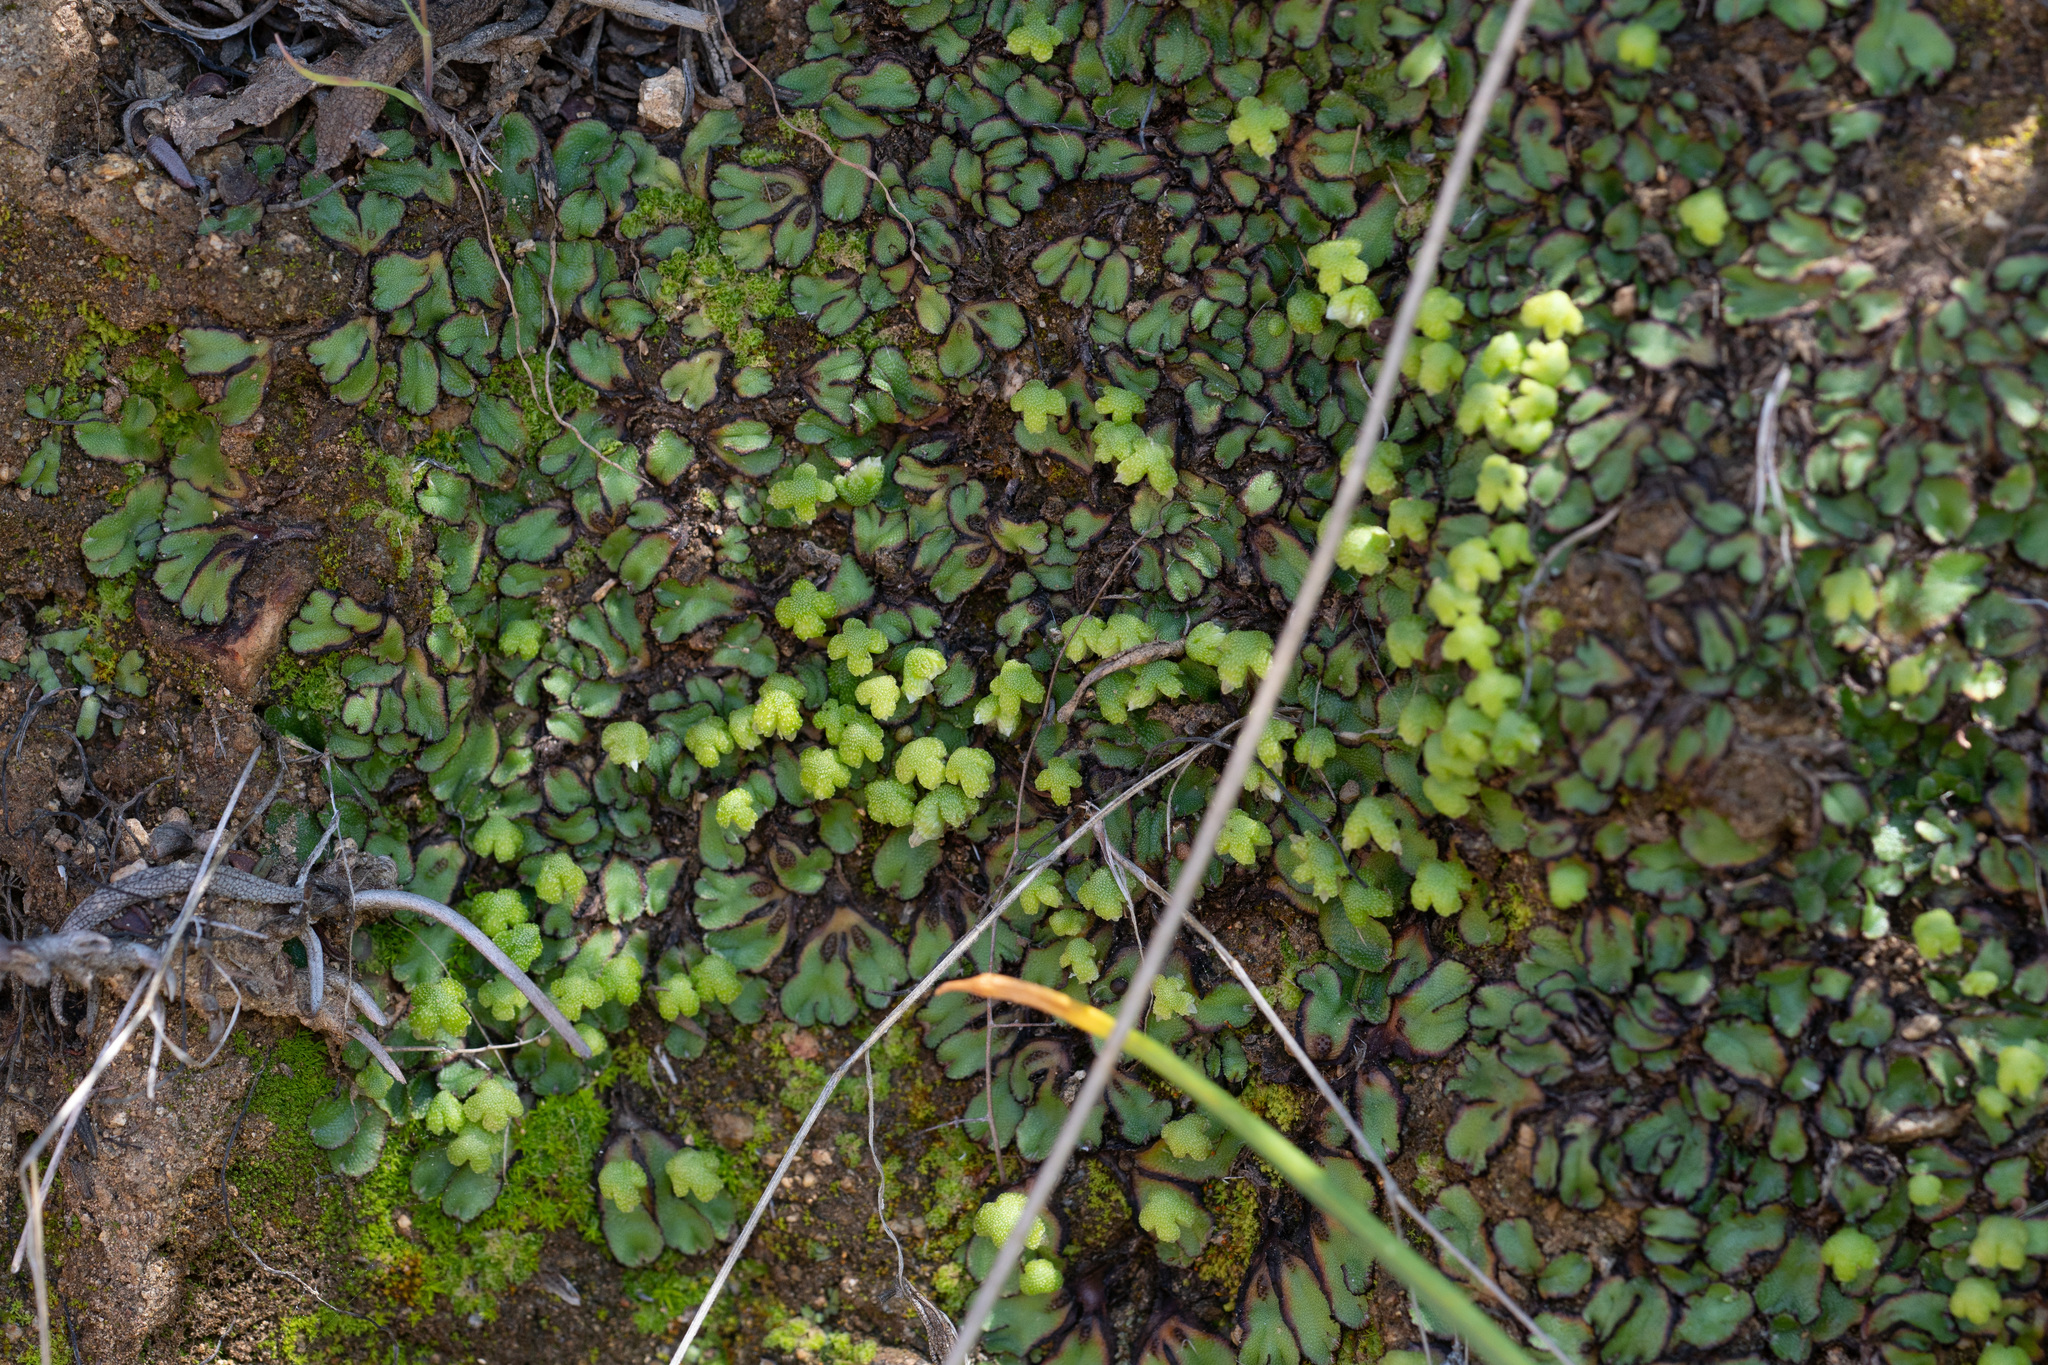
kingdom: Plantae
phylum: Marchantiophyta
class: Marchantiopsida
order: Marchantiales
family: Aytoniaceae
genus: Asterella
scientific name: Asterella californica
